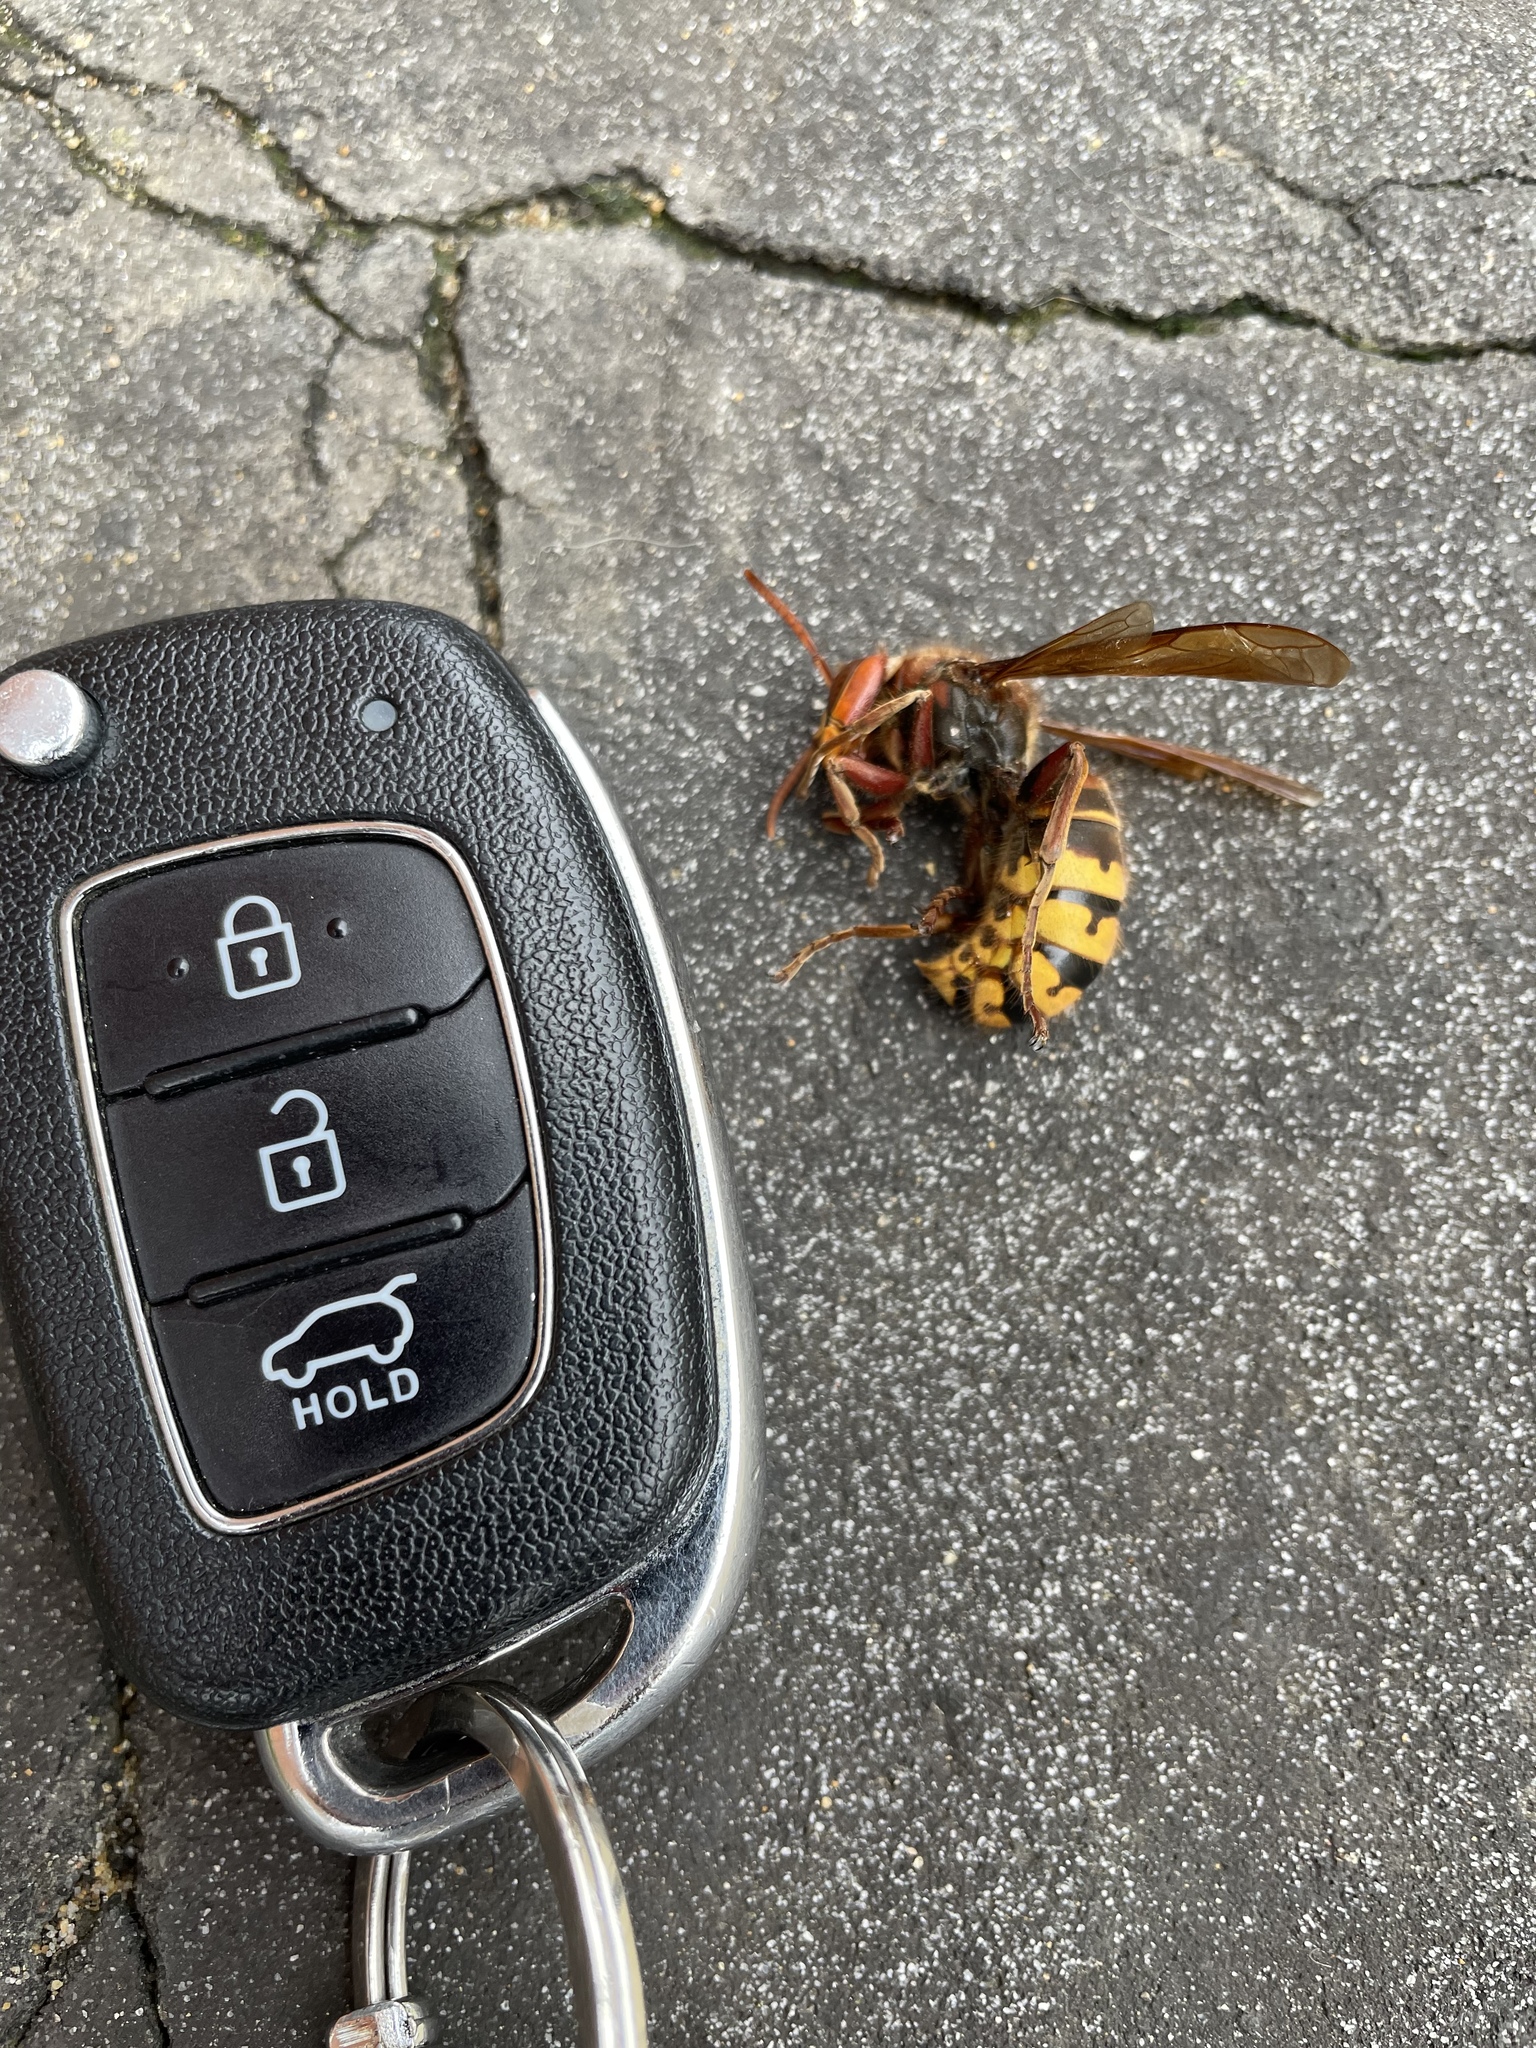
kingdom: Animalia
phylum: Arthropoda
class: Insecta
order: Hymenoptera
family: Vespidae
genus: Vespa
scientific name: Vespa crabro
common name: Hornet
